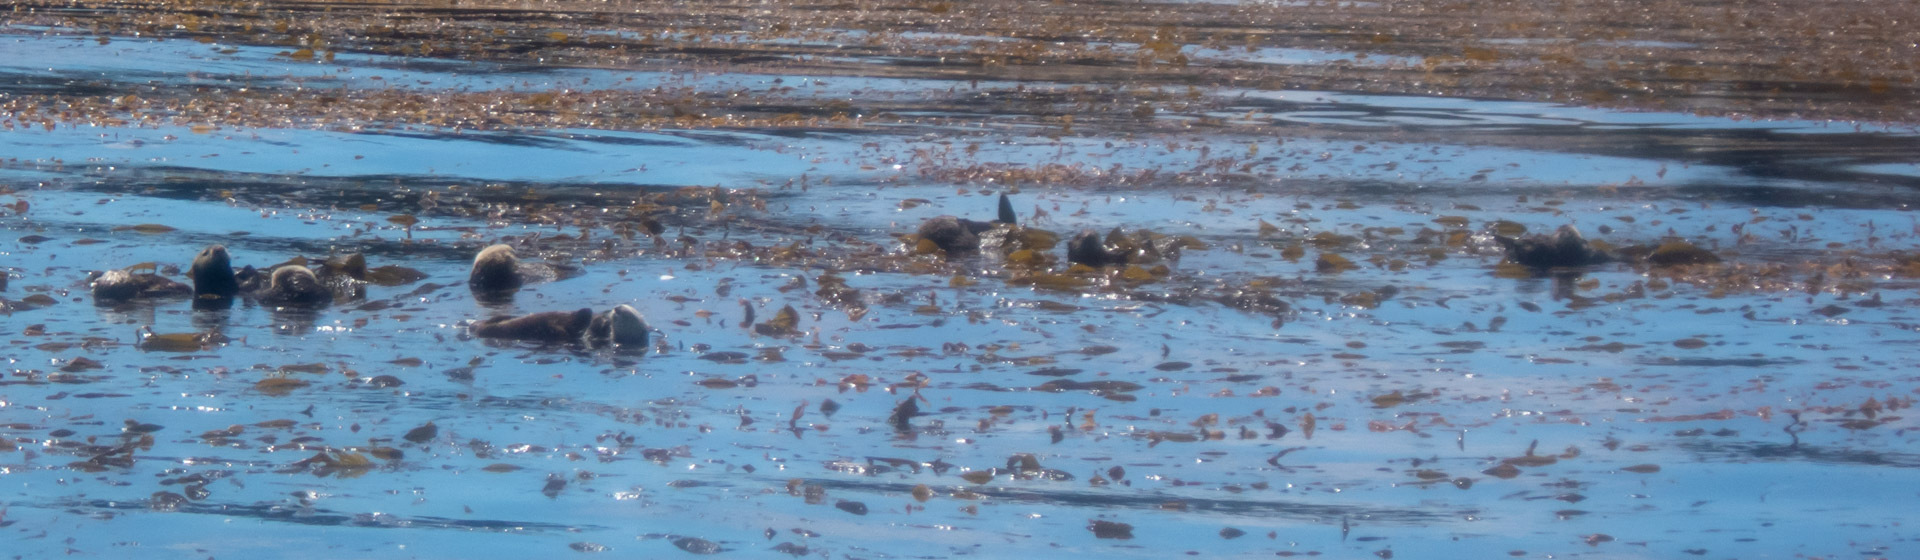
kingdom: Animalia
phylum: Chordata
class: Mammalia
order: Carnivora
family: Mustelidae
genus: Enhydra
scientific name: Enhydra lutris
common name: Sea otter
